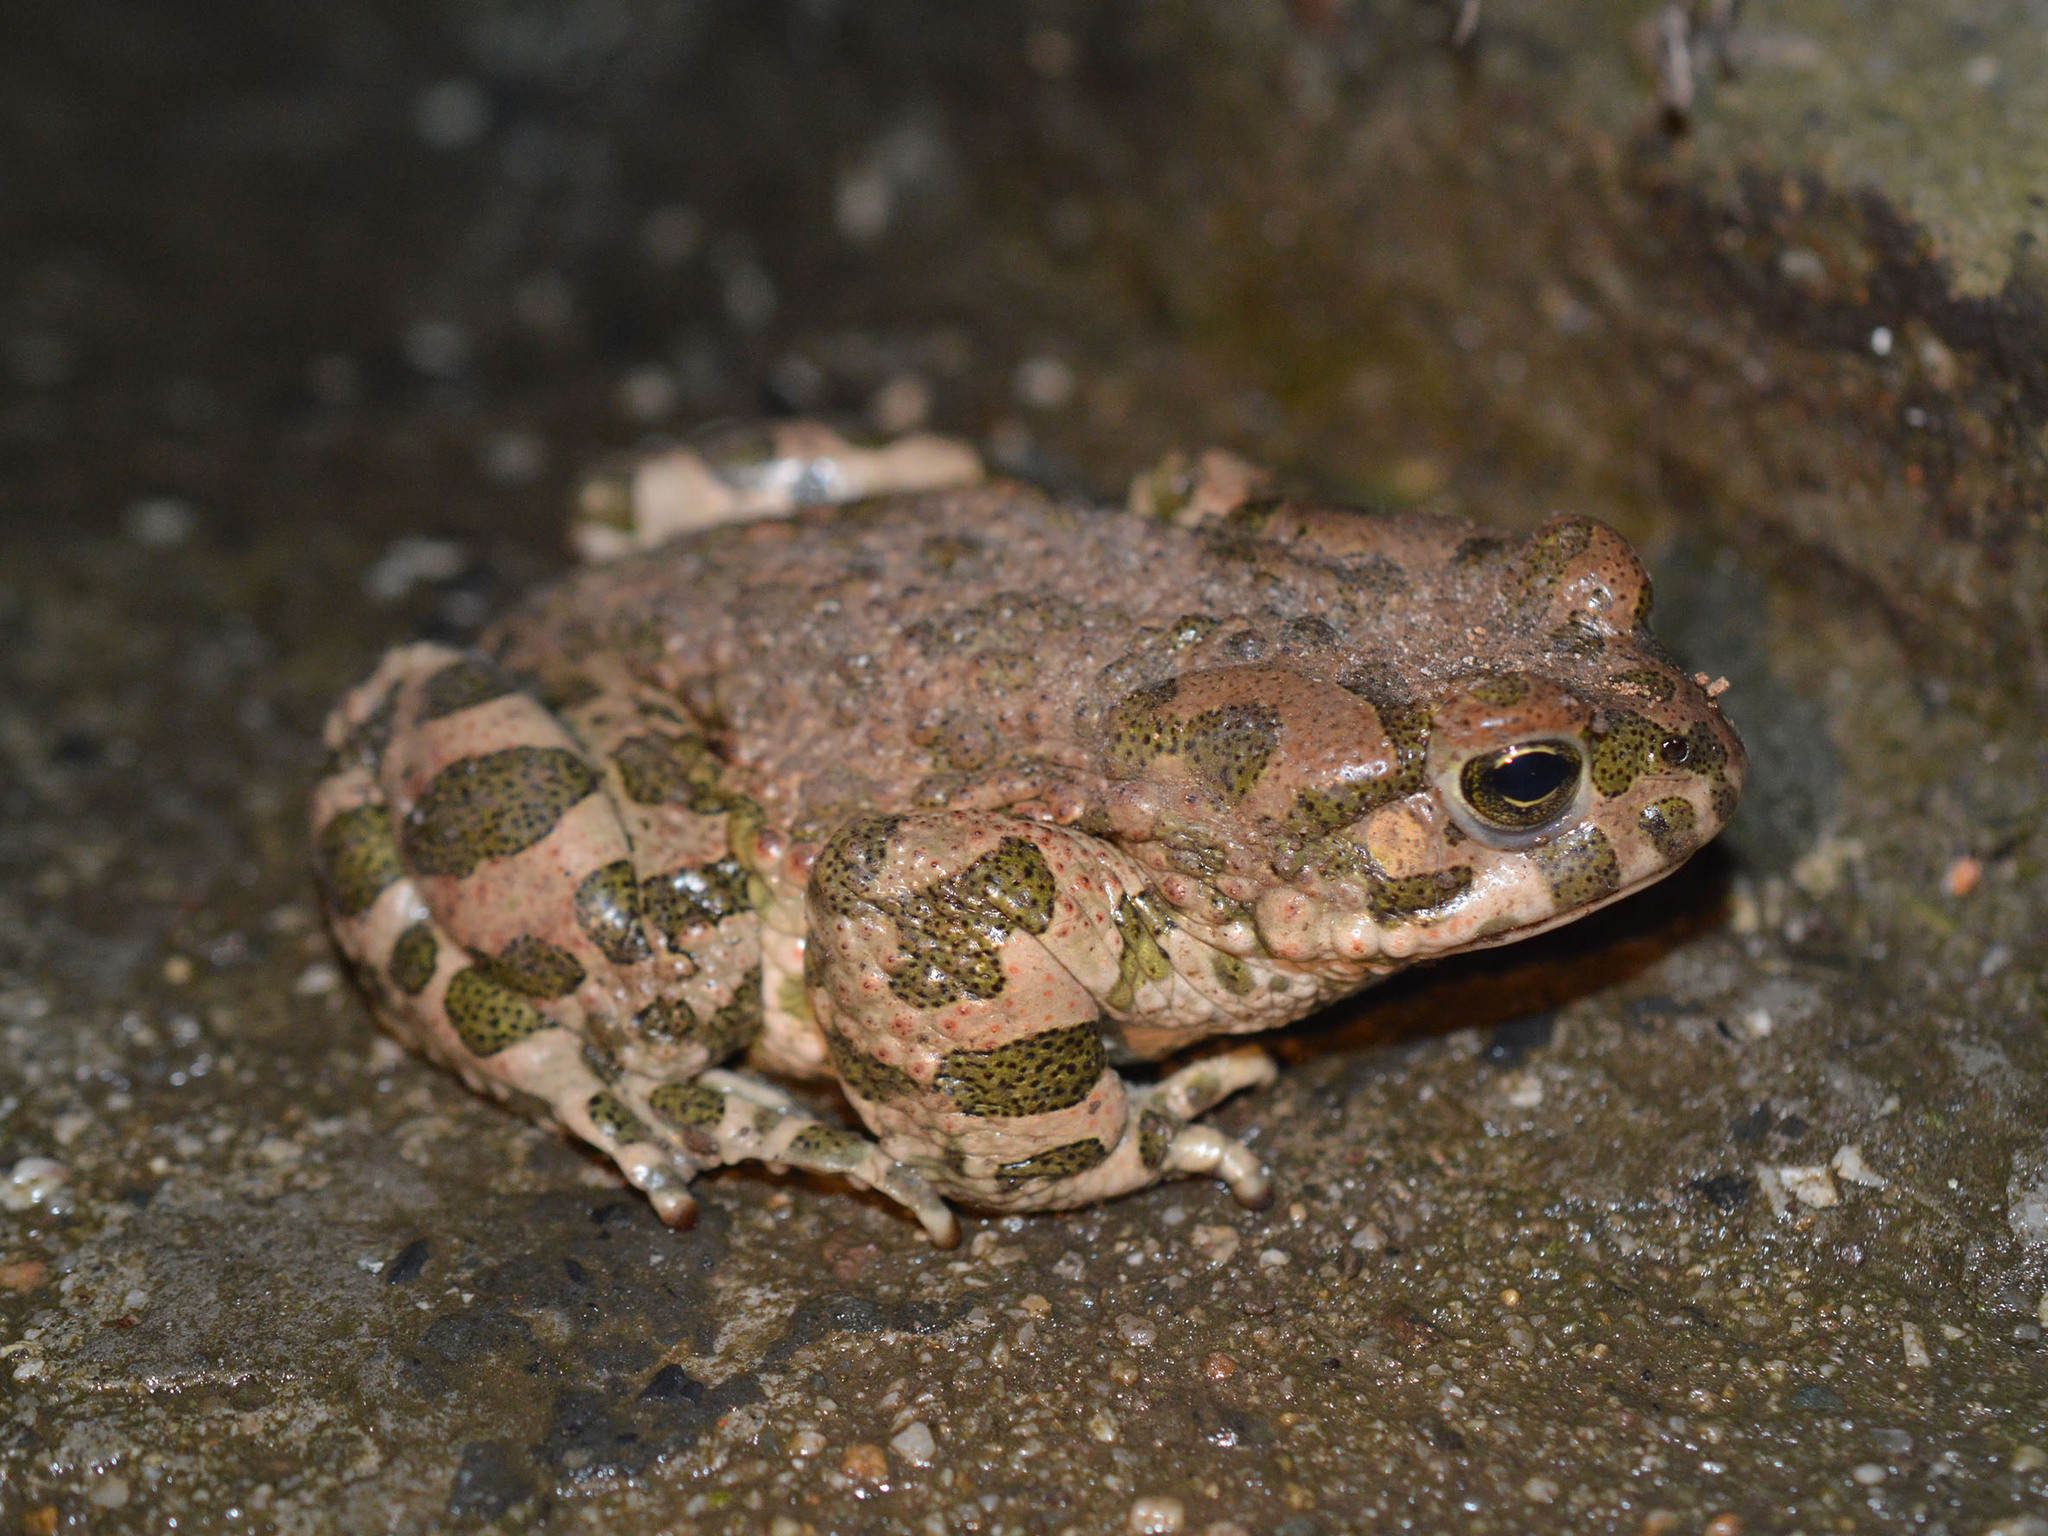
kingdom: Animalia
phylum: Chordata
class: Amphibia
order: Anura
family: Bufonidae
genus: Bufotes
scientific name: Bufotes viridis
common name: European green toad
